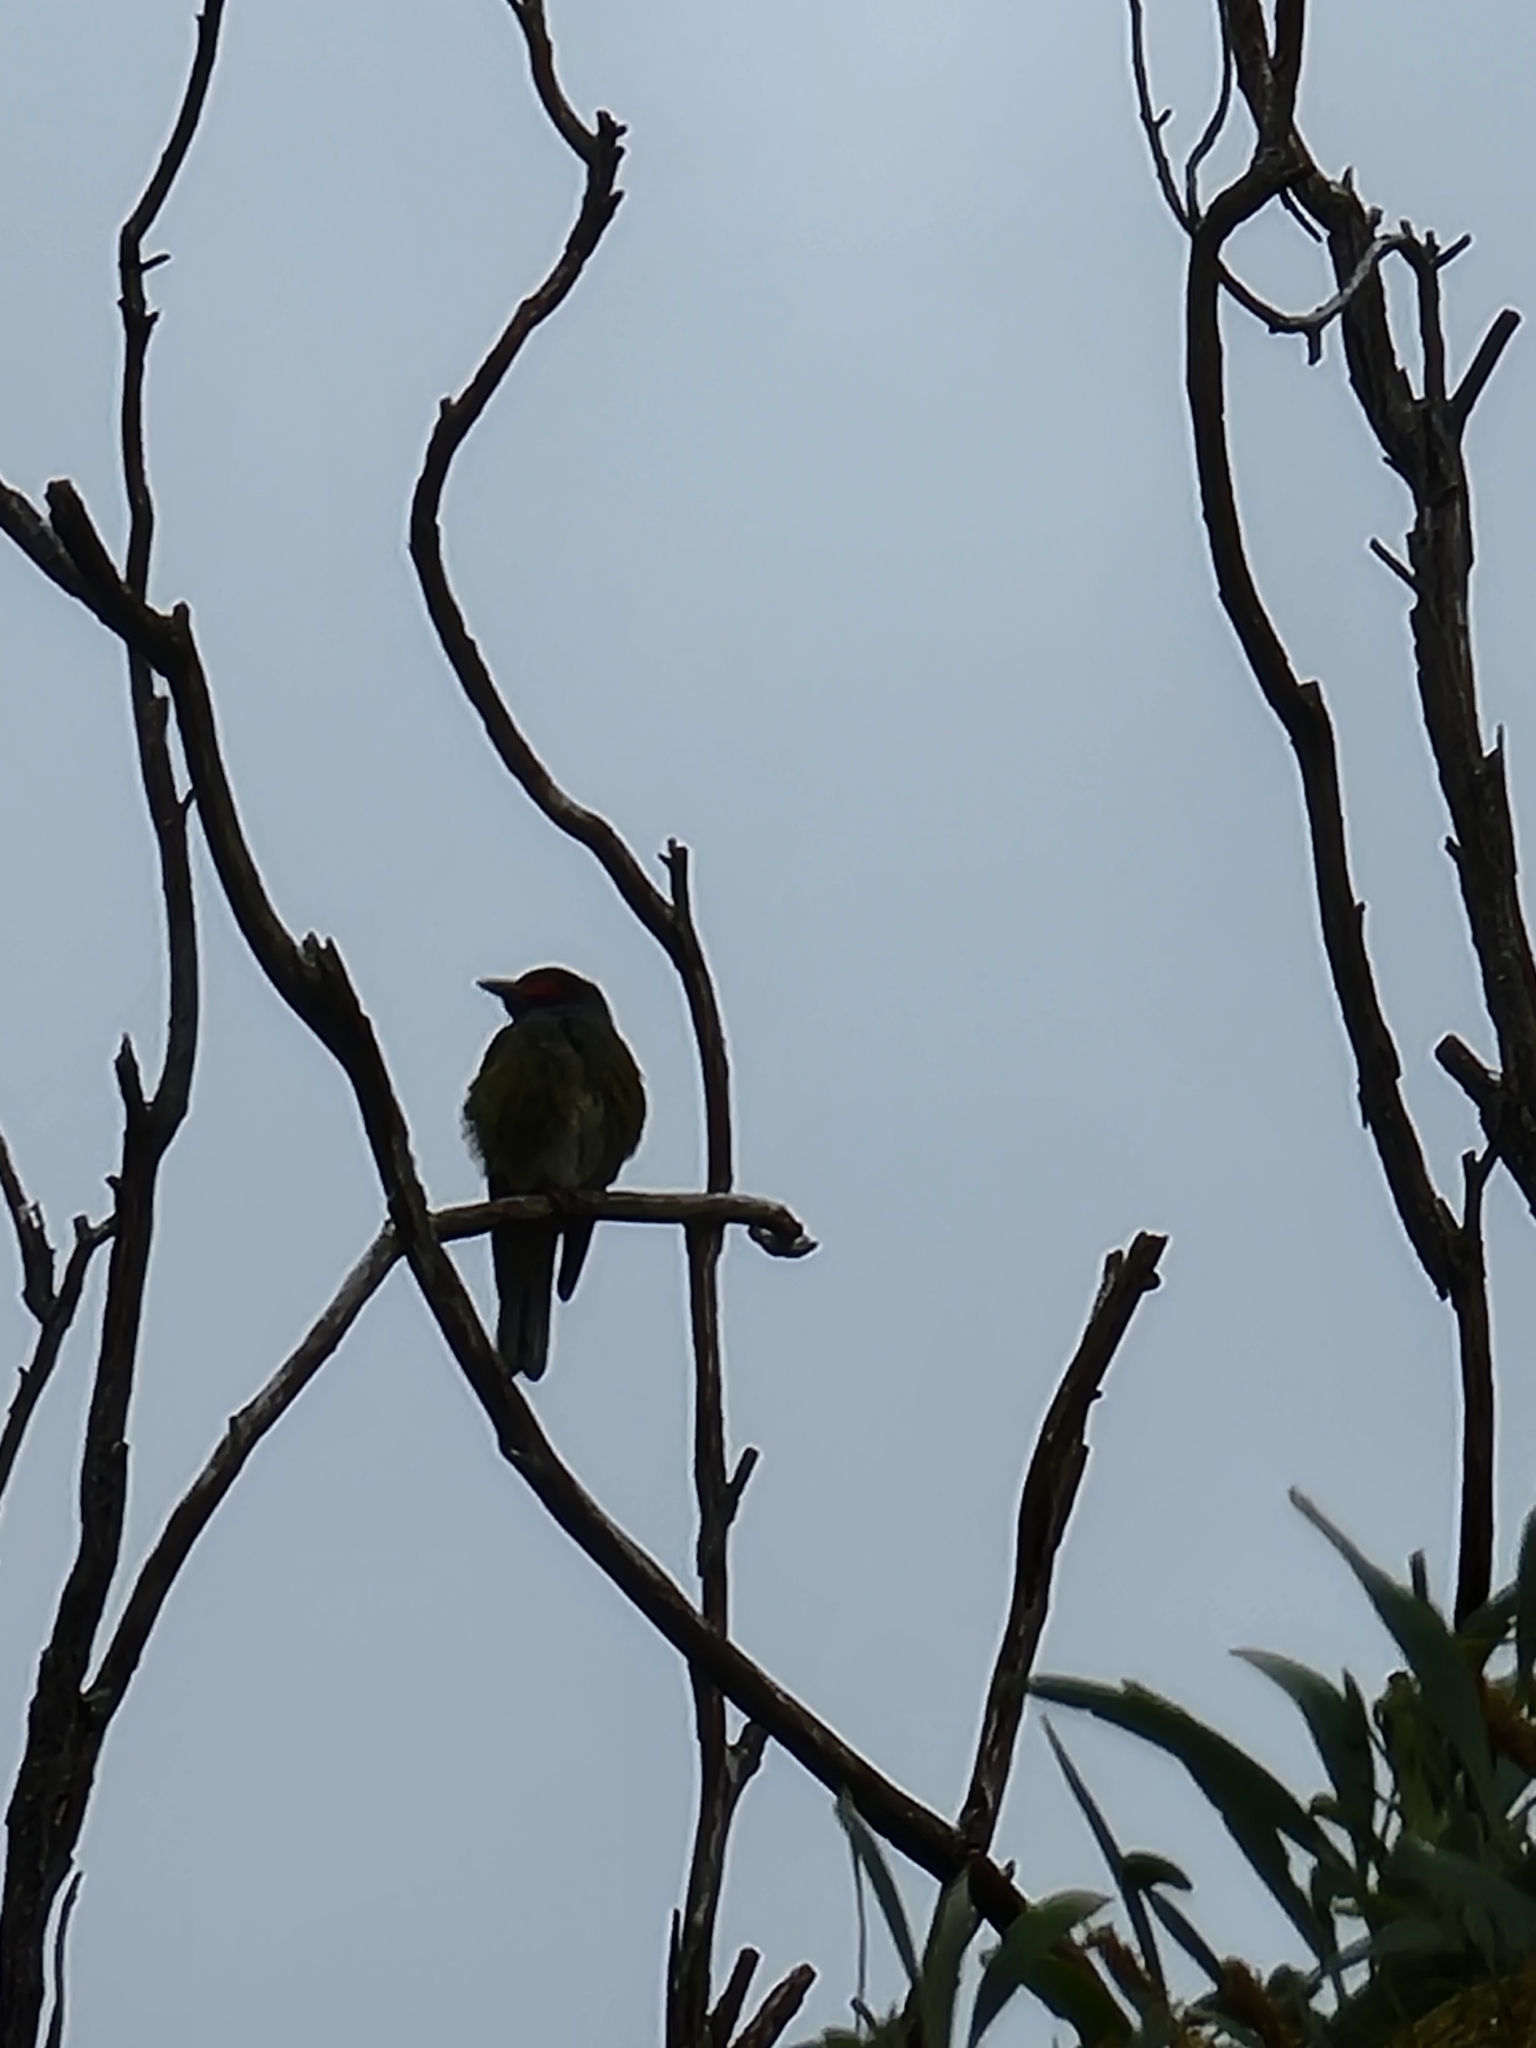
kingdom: Animalia
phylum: Chordata
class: Aves
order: Passeriformes
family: Oriolidae
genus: Sphecotheres
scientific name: Sphecotheres vieilloti
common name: Australasian figbird
